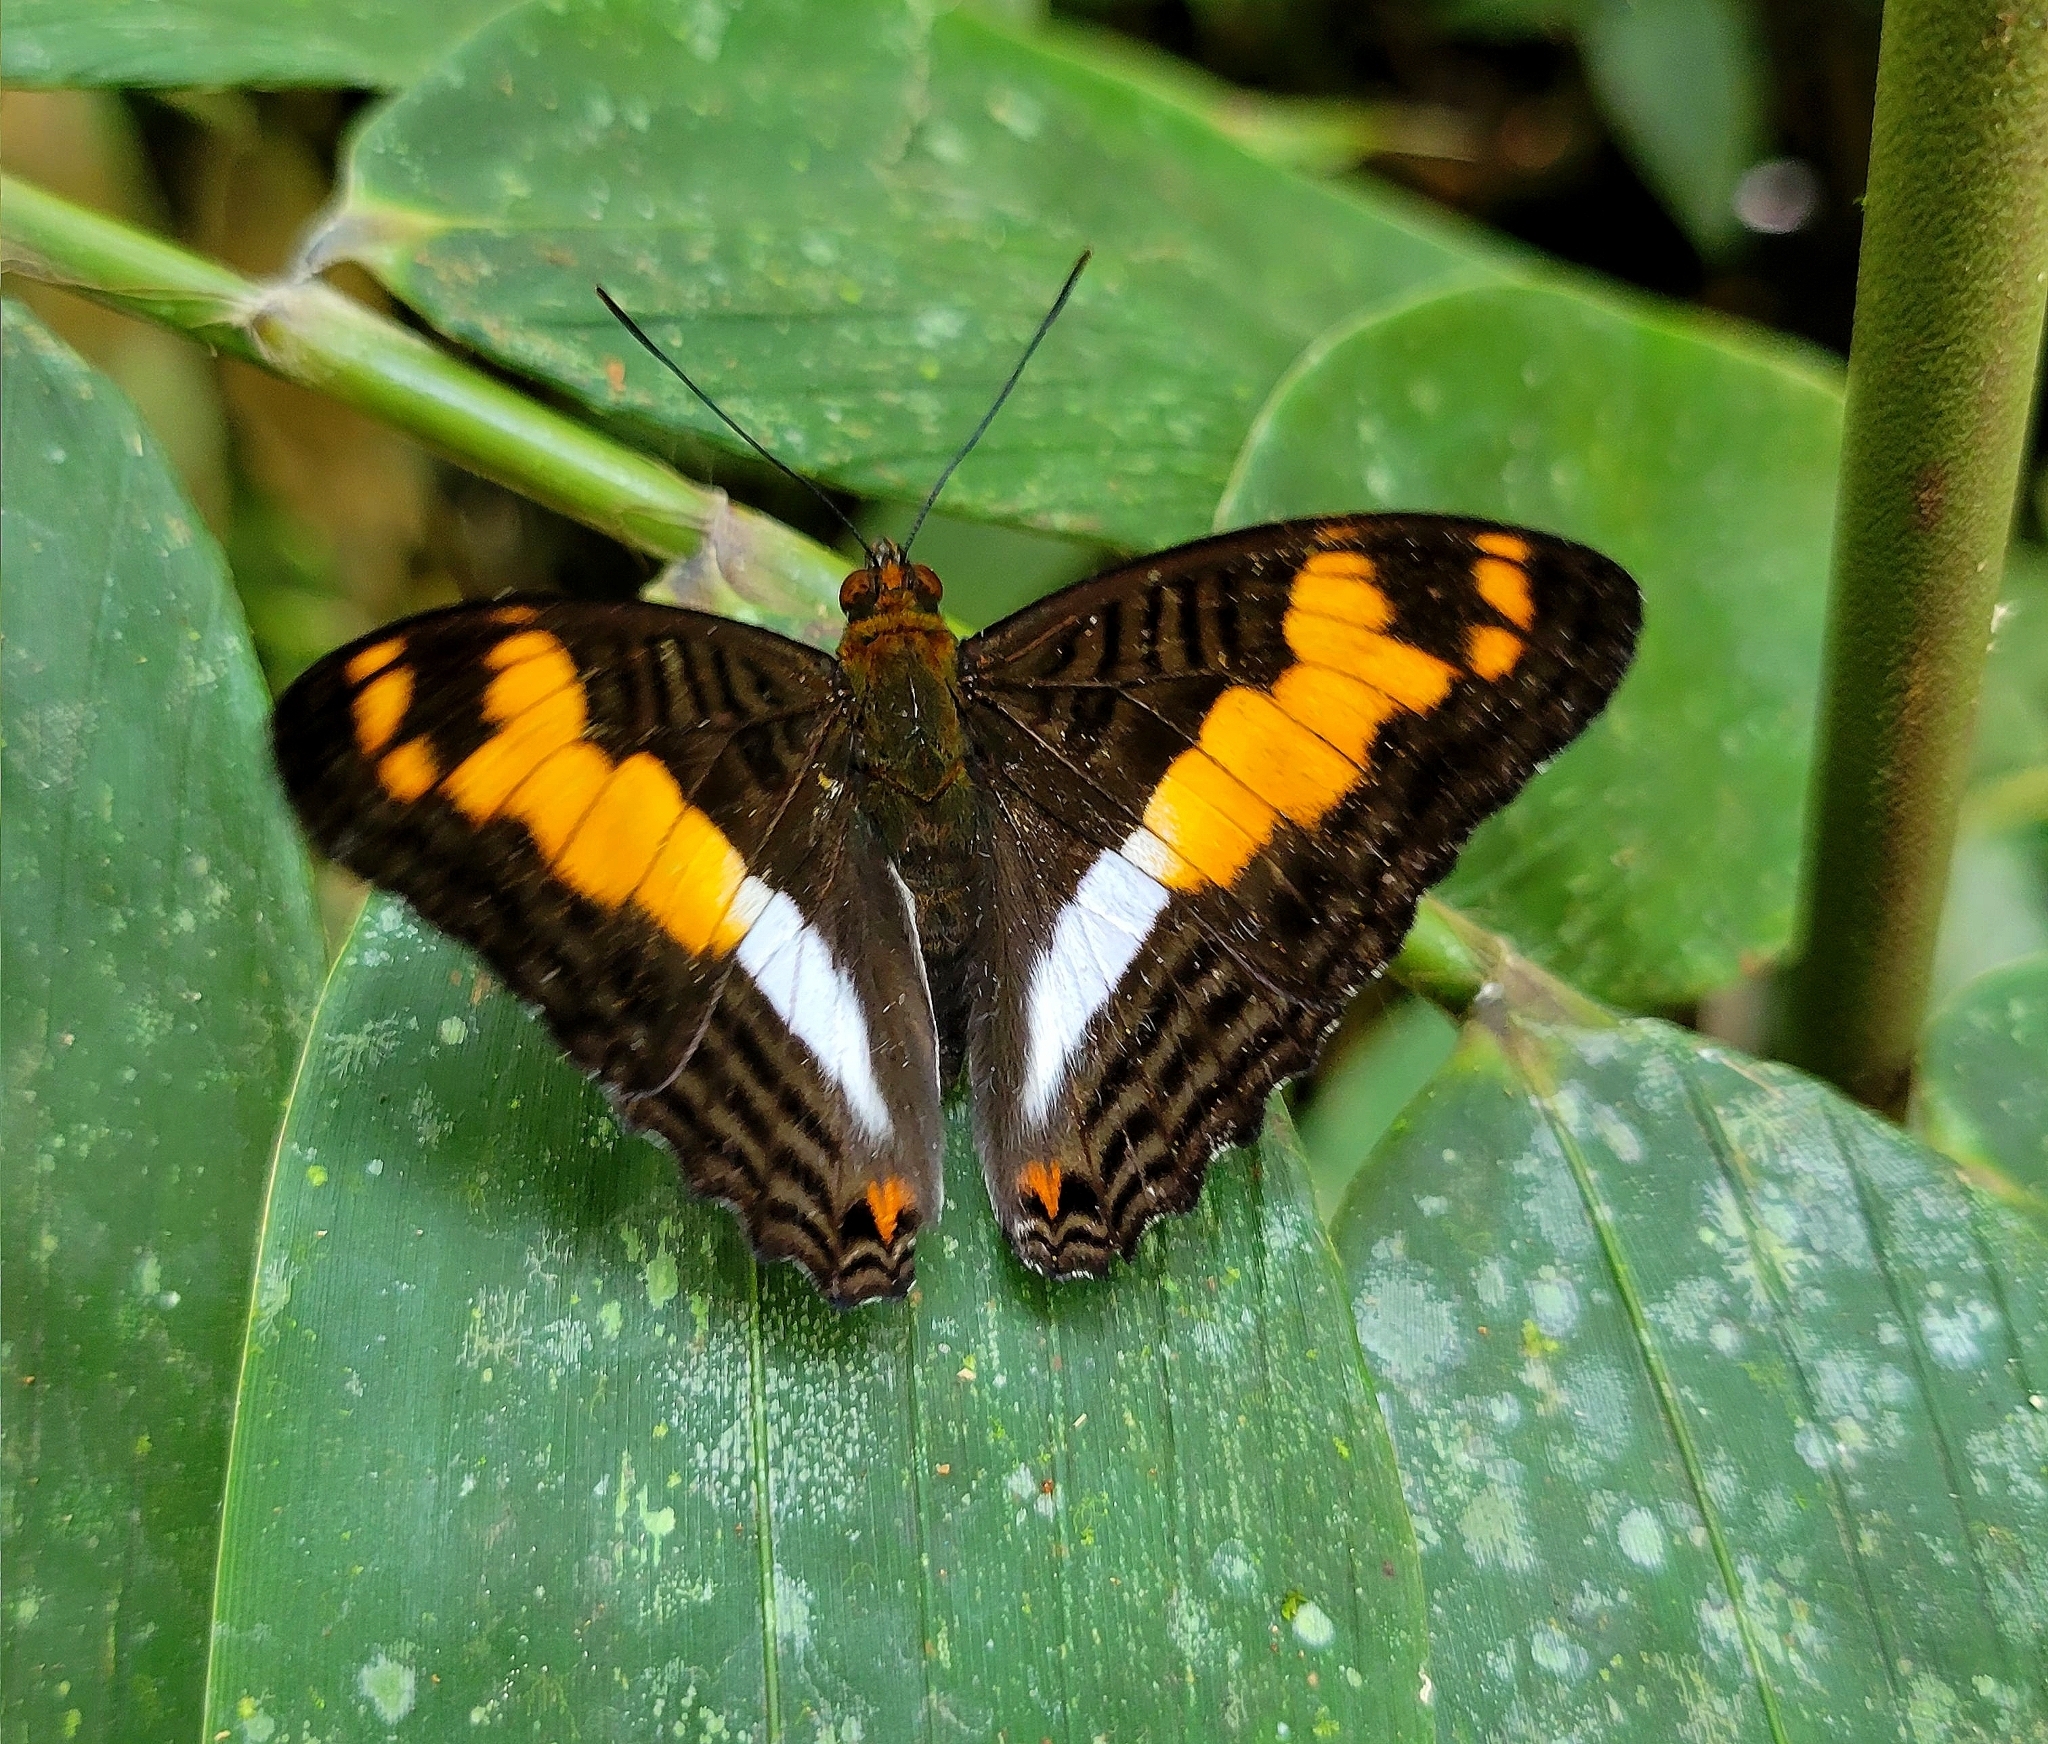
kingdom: Animalia
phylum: Arthropoda
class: Insecta
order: Lepidoptera
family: Nymphalidae
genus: Limenitis
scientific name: Limenitis thesprotia
